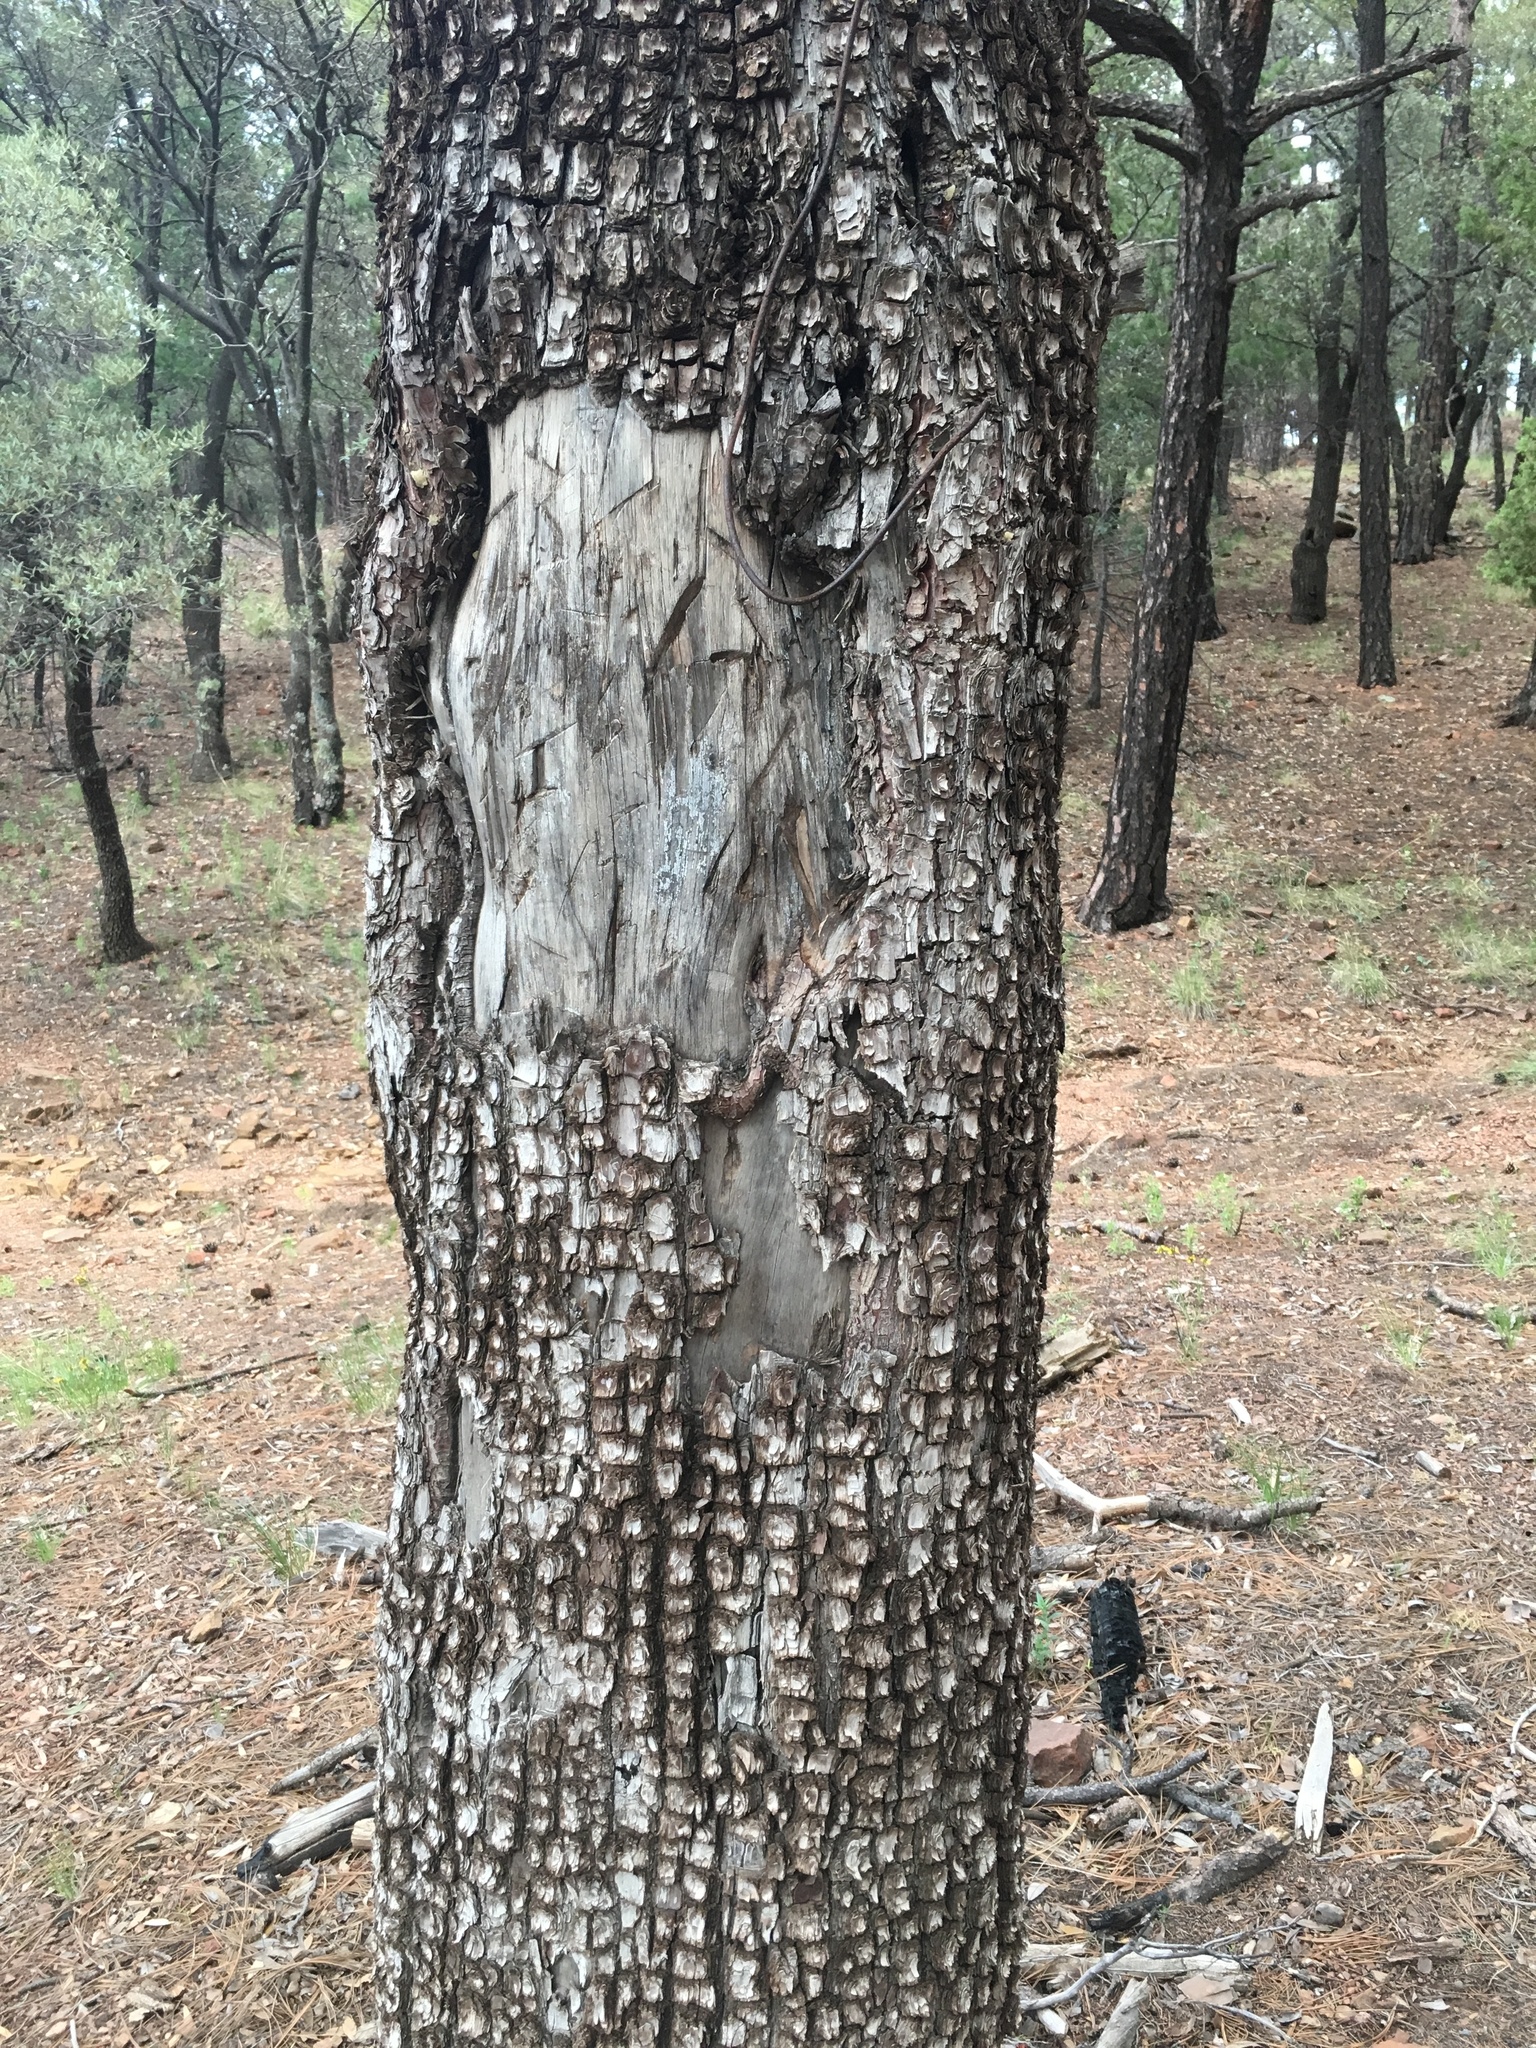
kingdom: Plantae
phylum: Tracheophyta
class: Pinopsida
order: Pinales
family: Cupressaceae
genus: Juniperus
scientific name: Juniperus deppeana
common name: Alligator juniper
